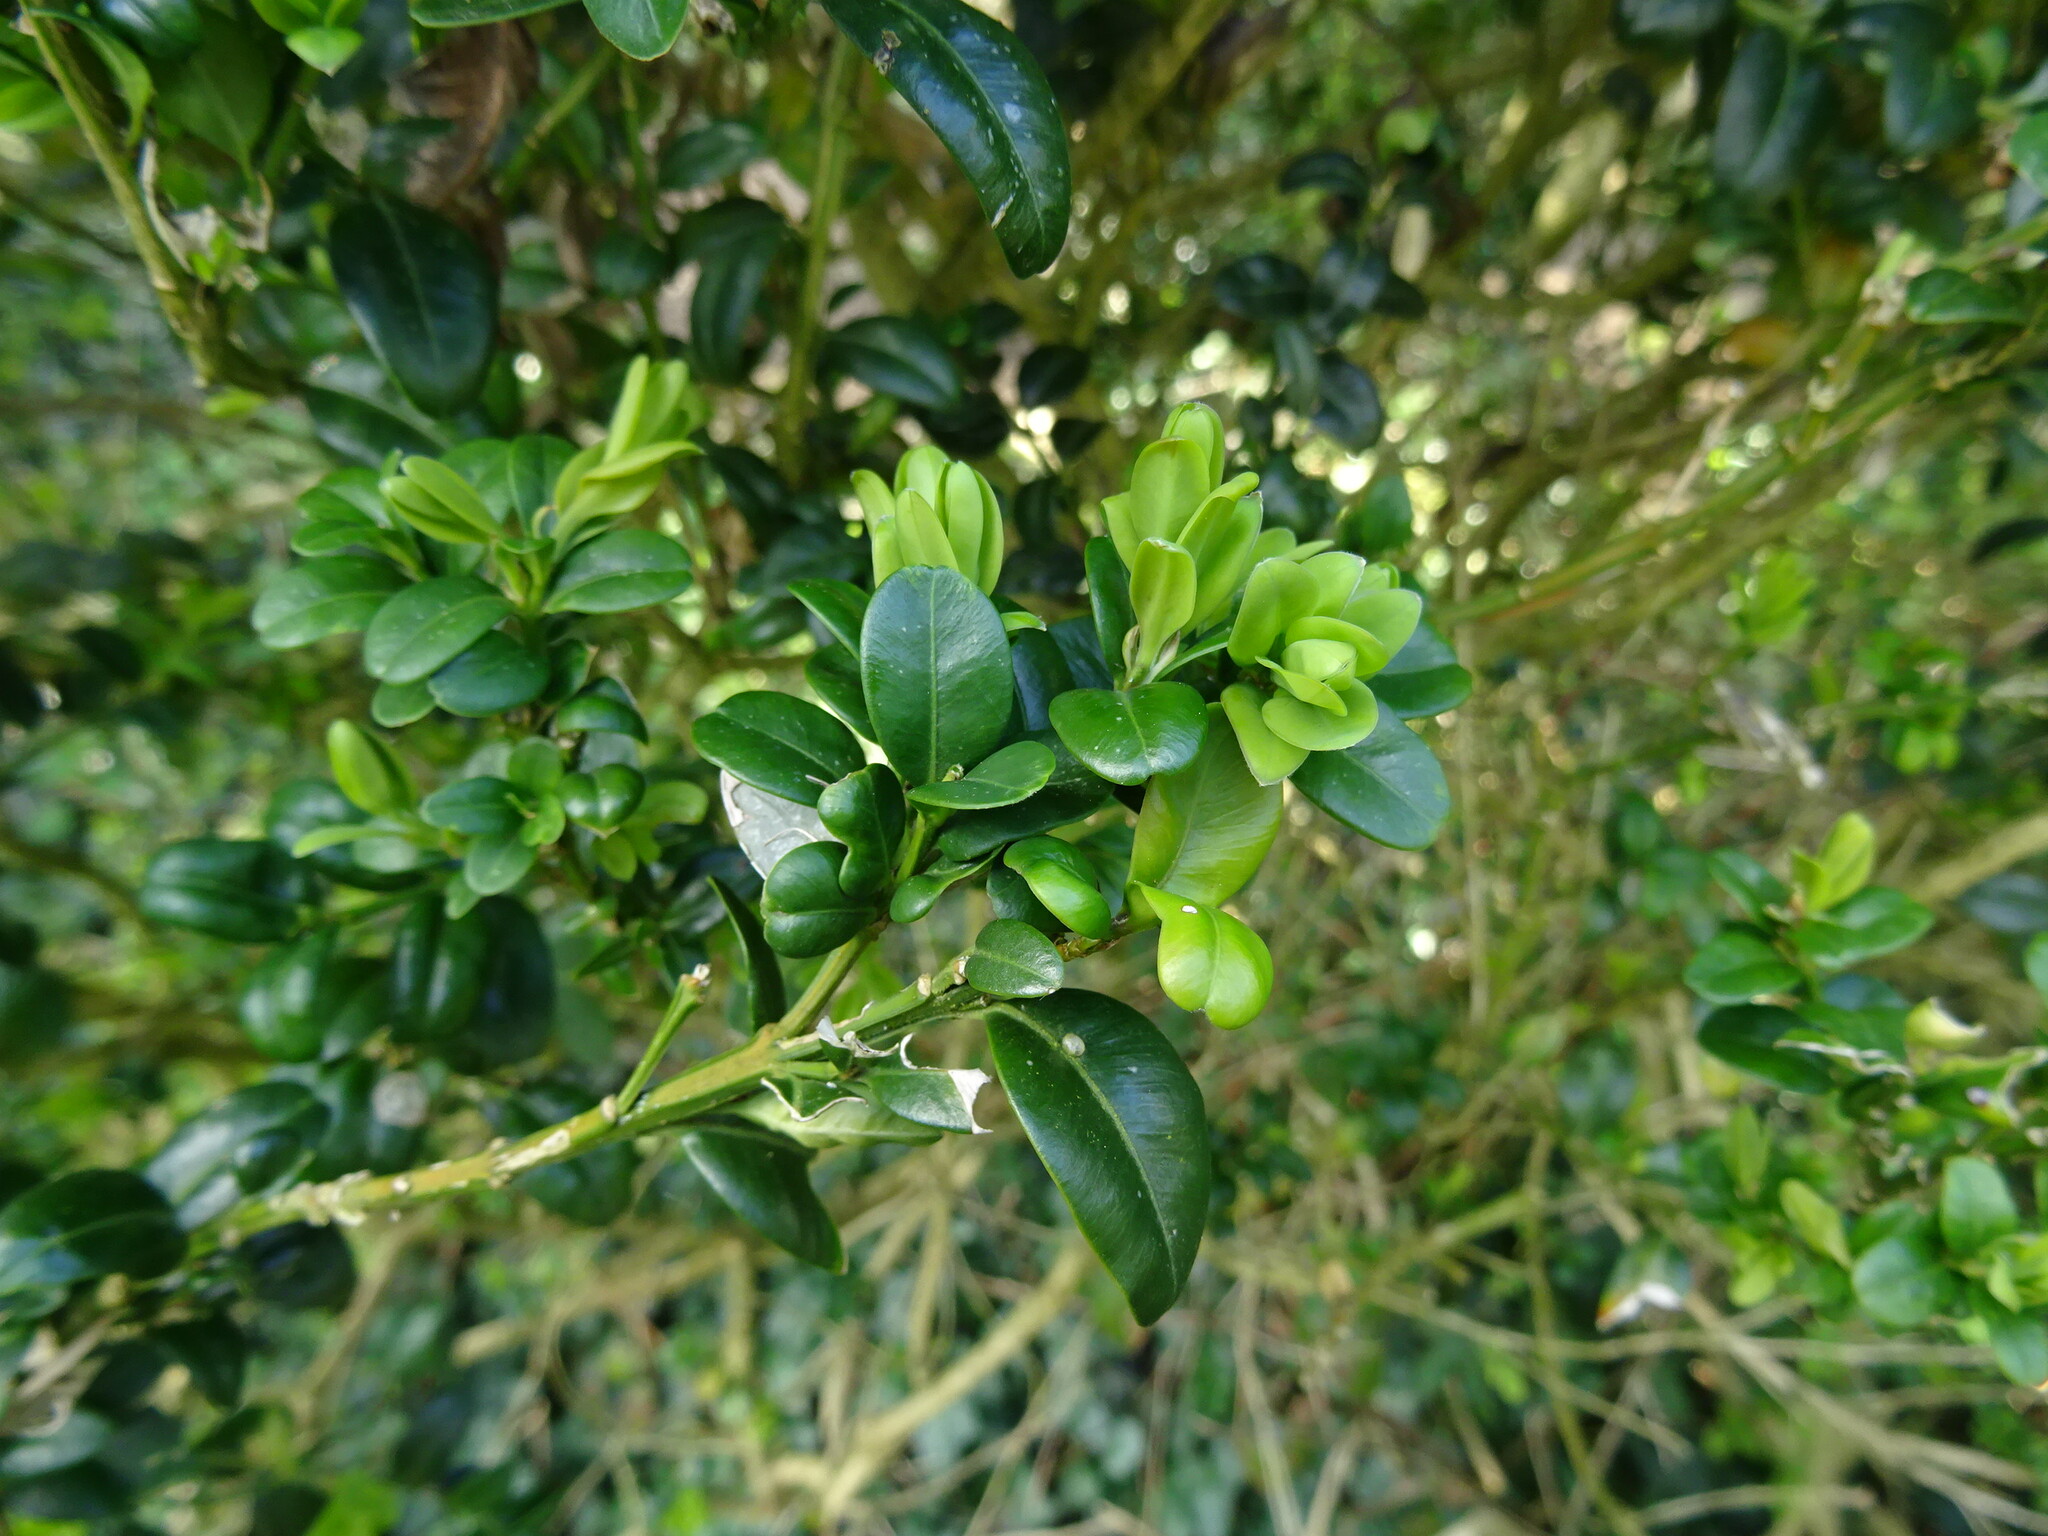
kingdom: Plantae
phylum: Tracheophyta
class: Magnoliopsida
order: Buxales
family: Buxaceae
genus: Buxus
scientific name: Buxus sempervirens
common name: Box
